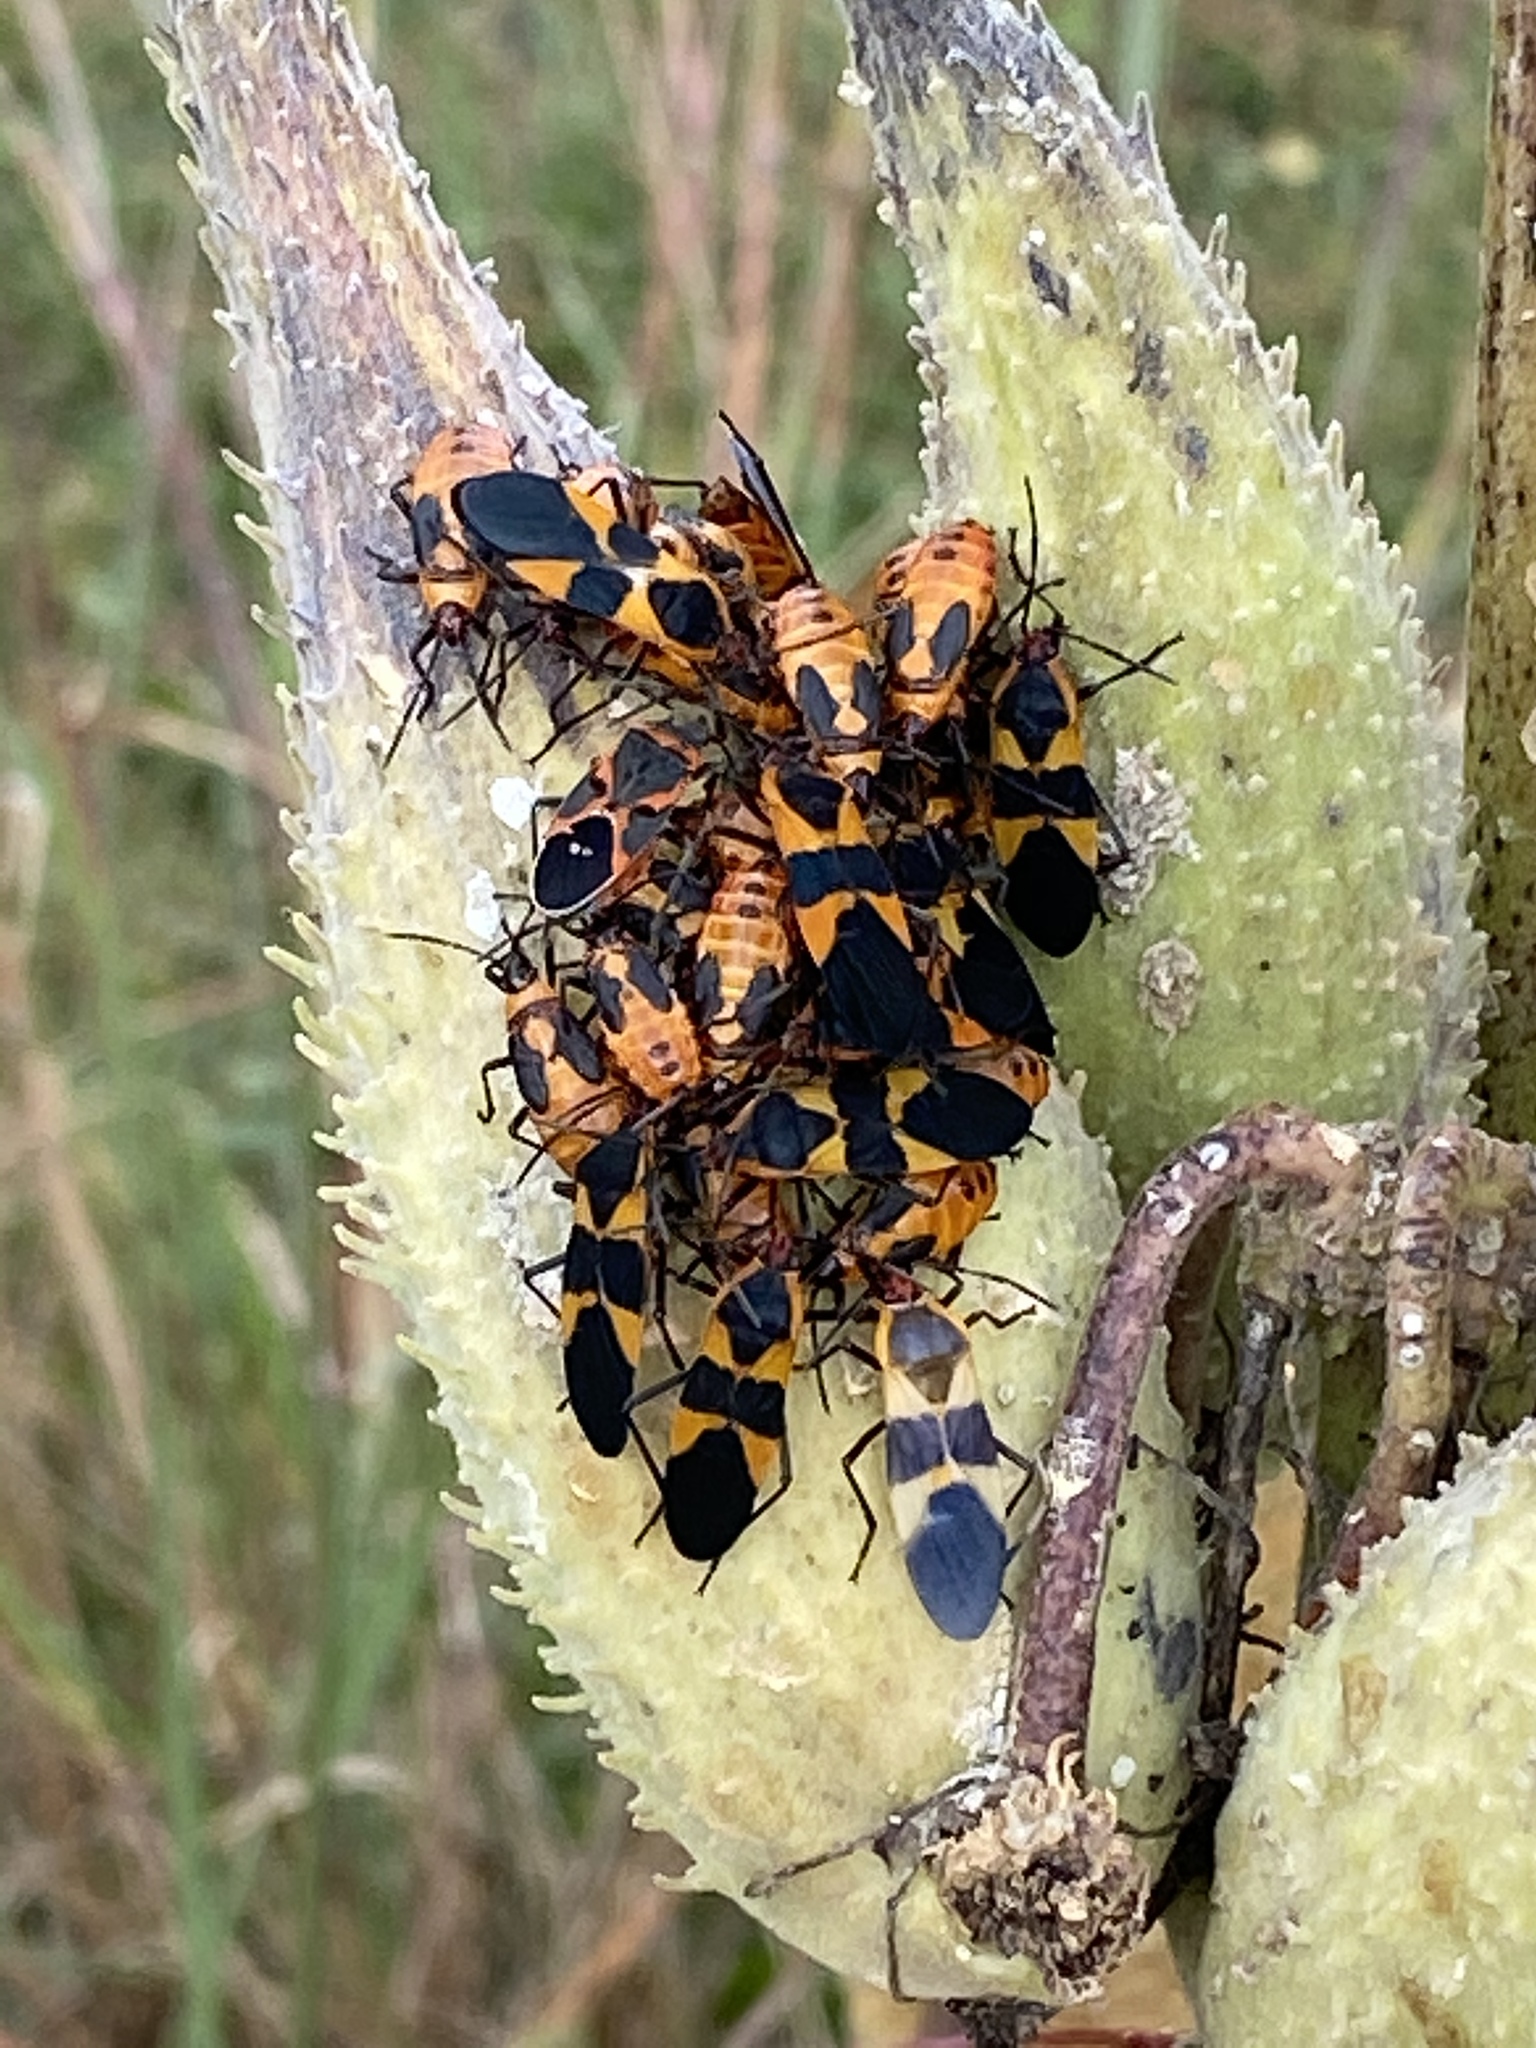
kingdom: Animalia
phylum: Arthropoda
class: Insecta
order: Hemiptera
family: Lygaeidae
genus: Oncopeltus
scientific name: Oncopeltus fasciatus
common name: Large milkweed bug
